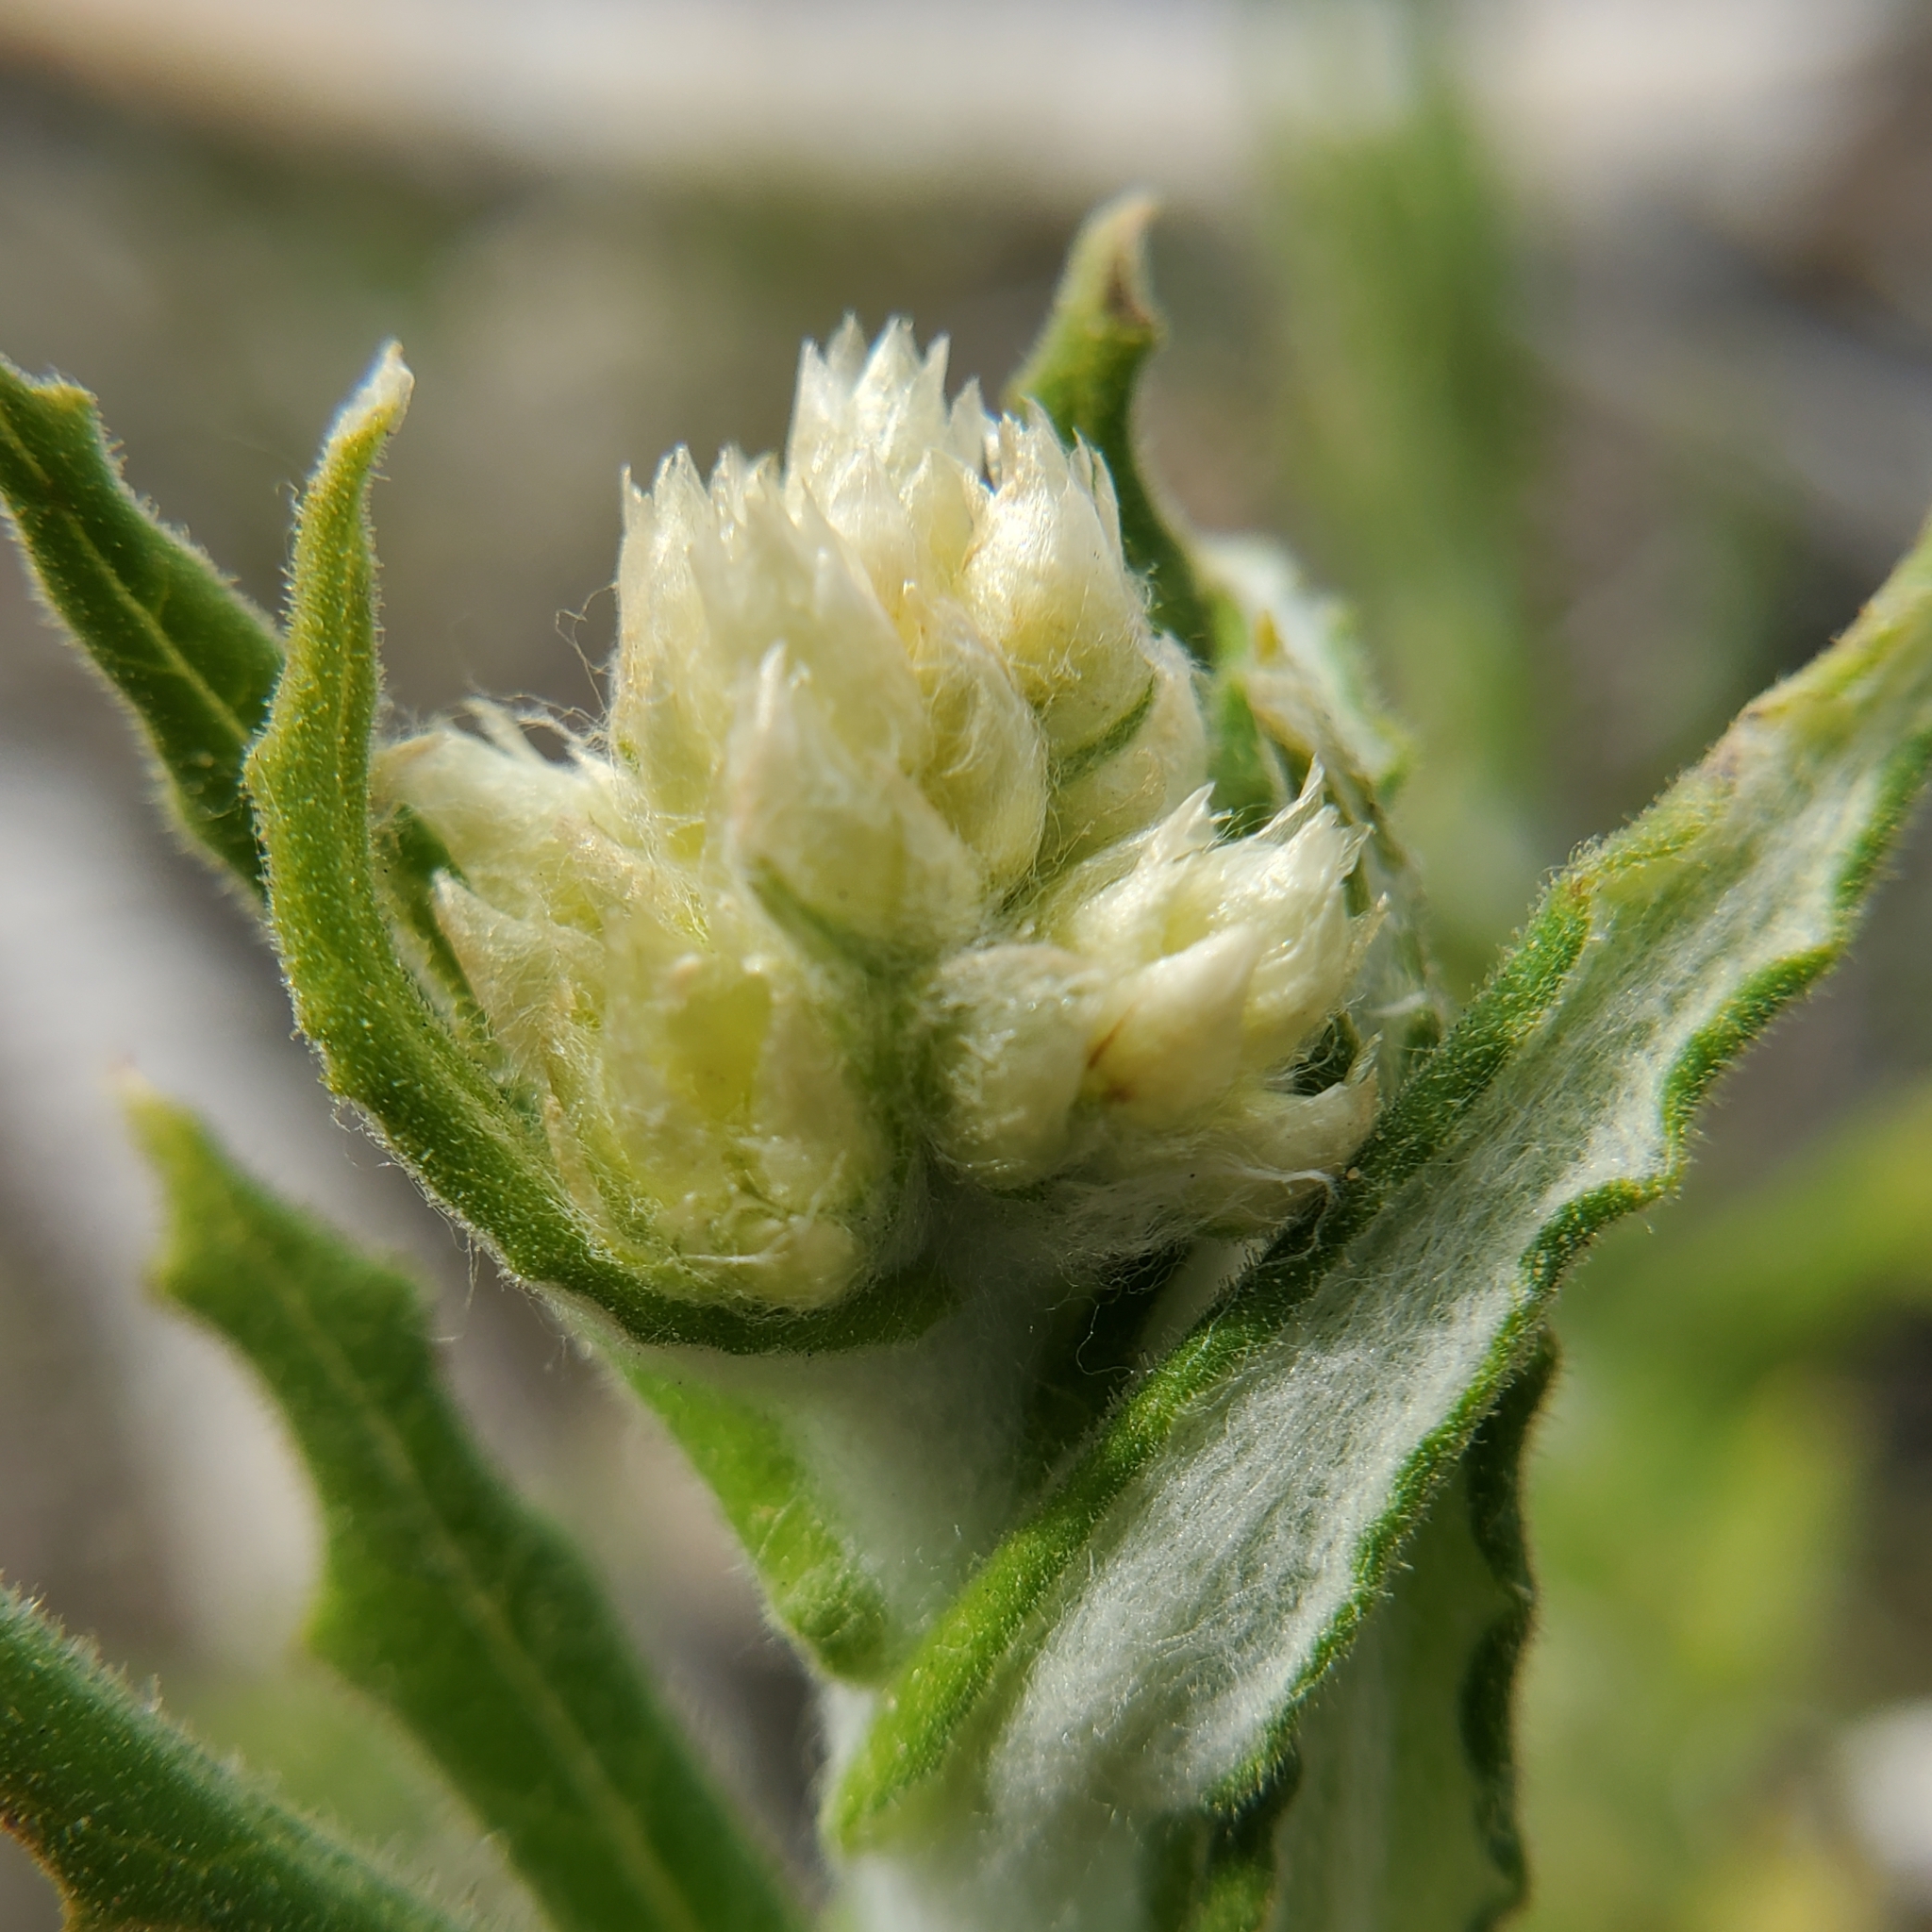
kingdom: Plantae
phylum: Tracheophyta
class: Magnoliopsida
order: Asterales
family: Asteraceae
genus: Pseudognaphalium
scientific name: Pseudognaphalium biolettii
